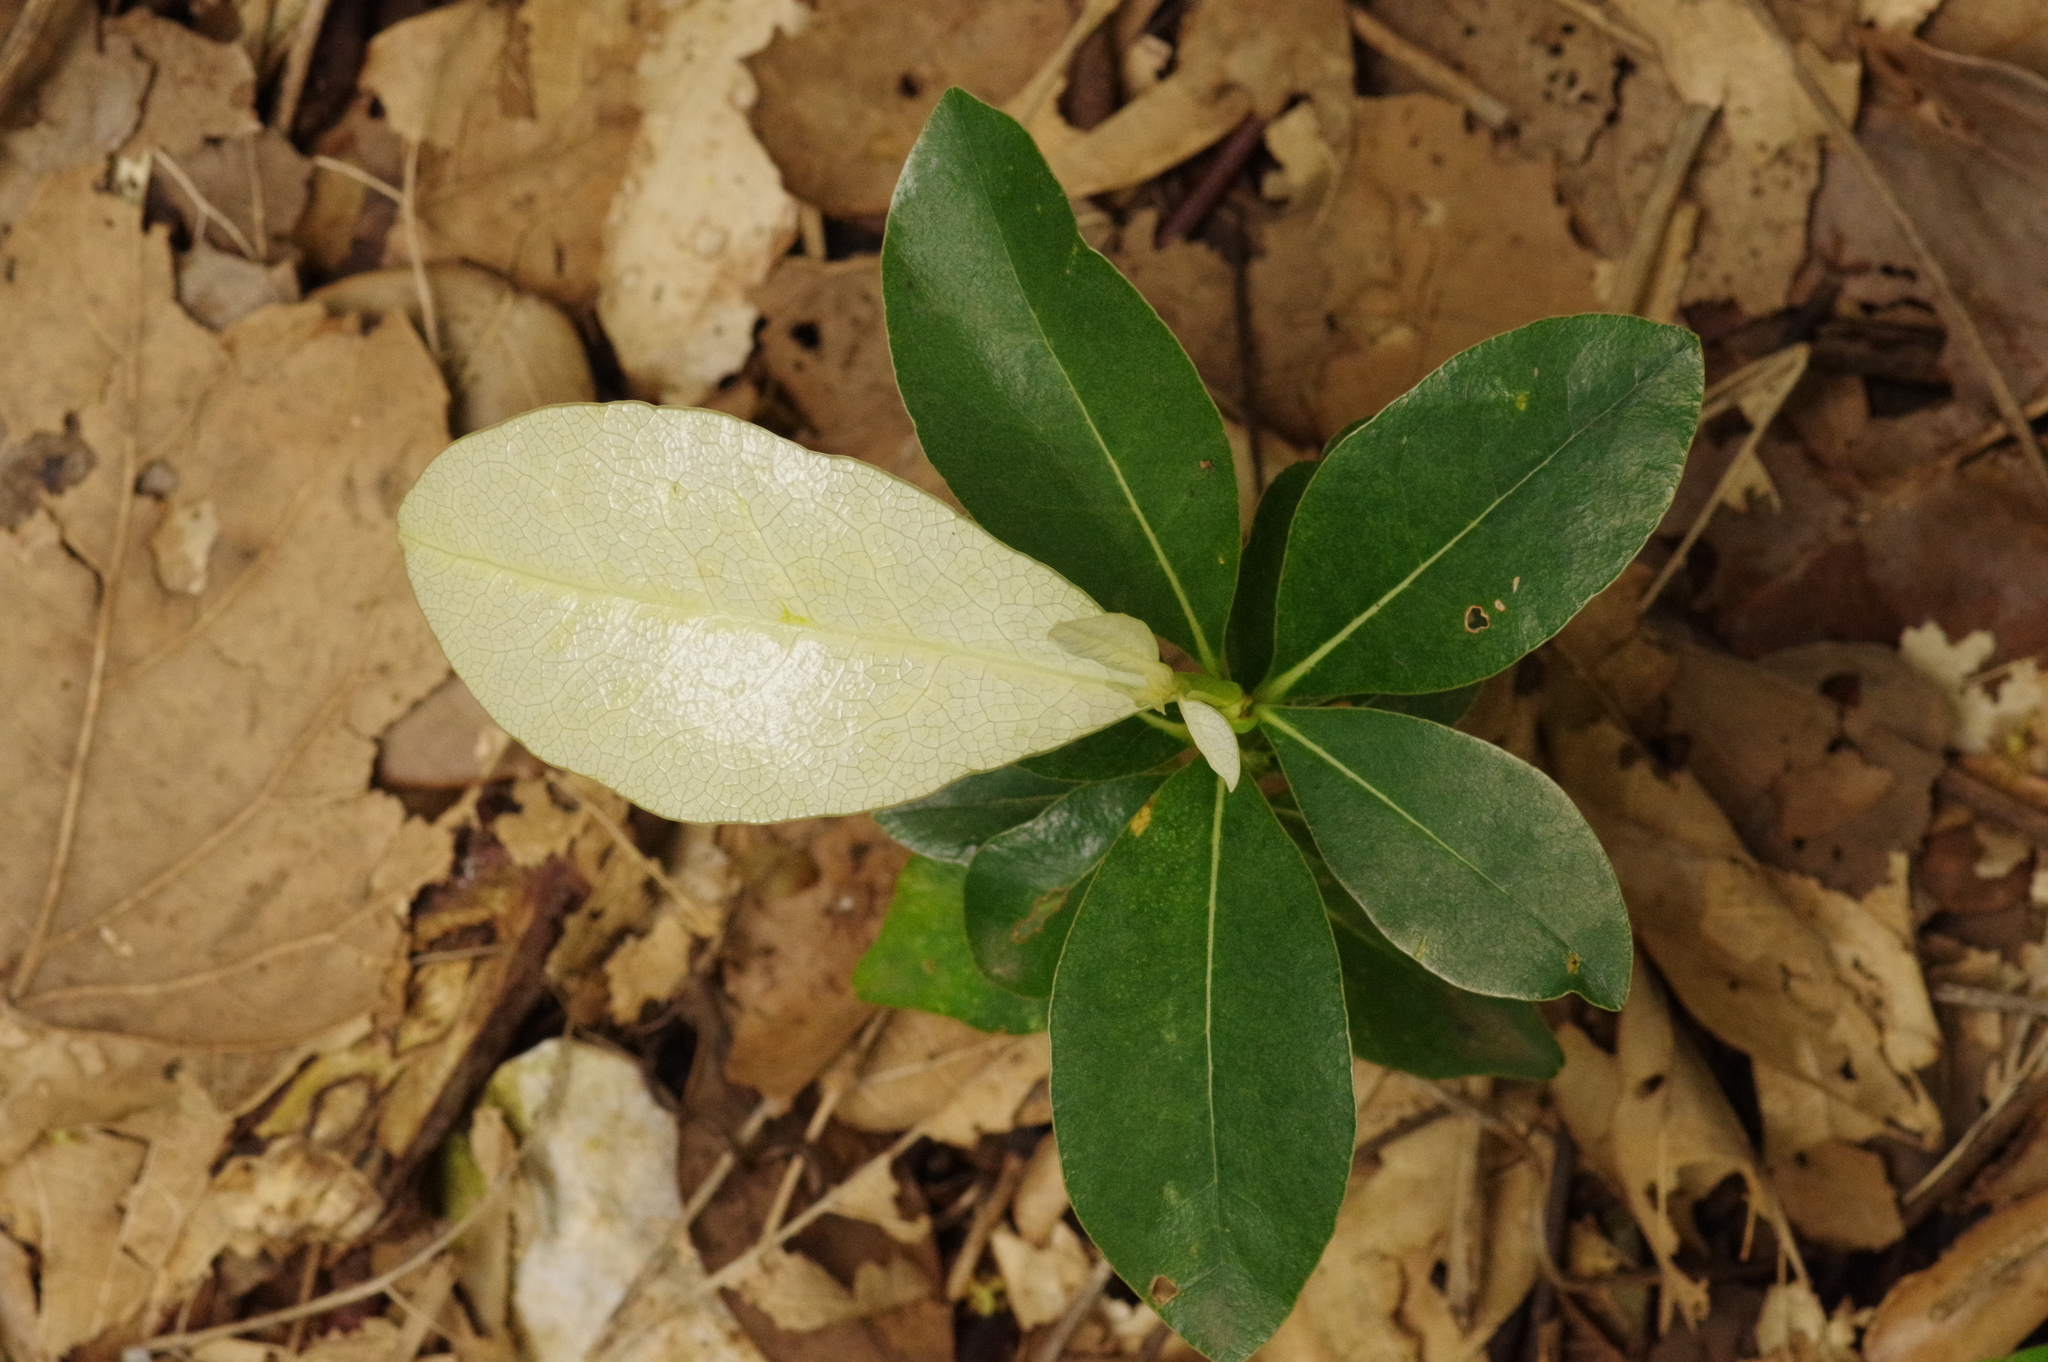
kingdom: Plantae
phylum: Tracheophyta
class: Magnoliopsida
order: Malpighiales
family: Euphorbiaceae
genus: Croton
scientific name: Croton cascarilloides
